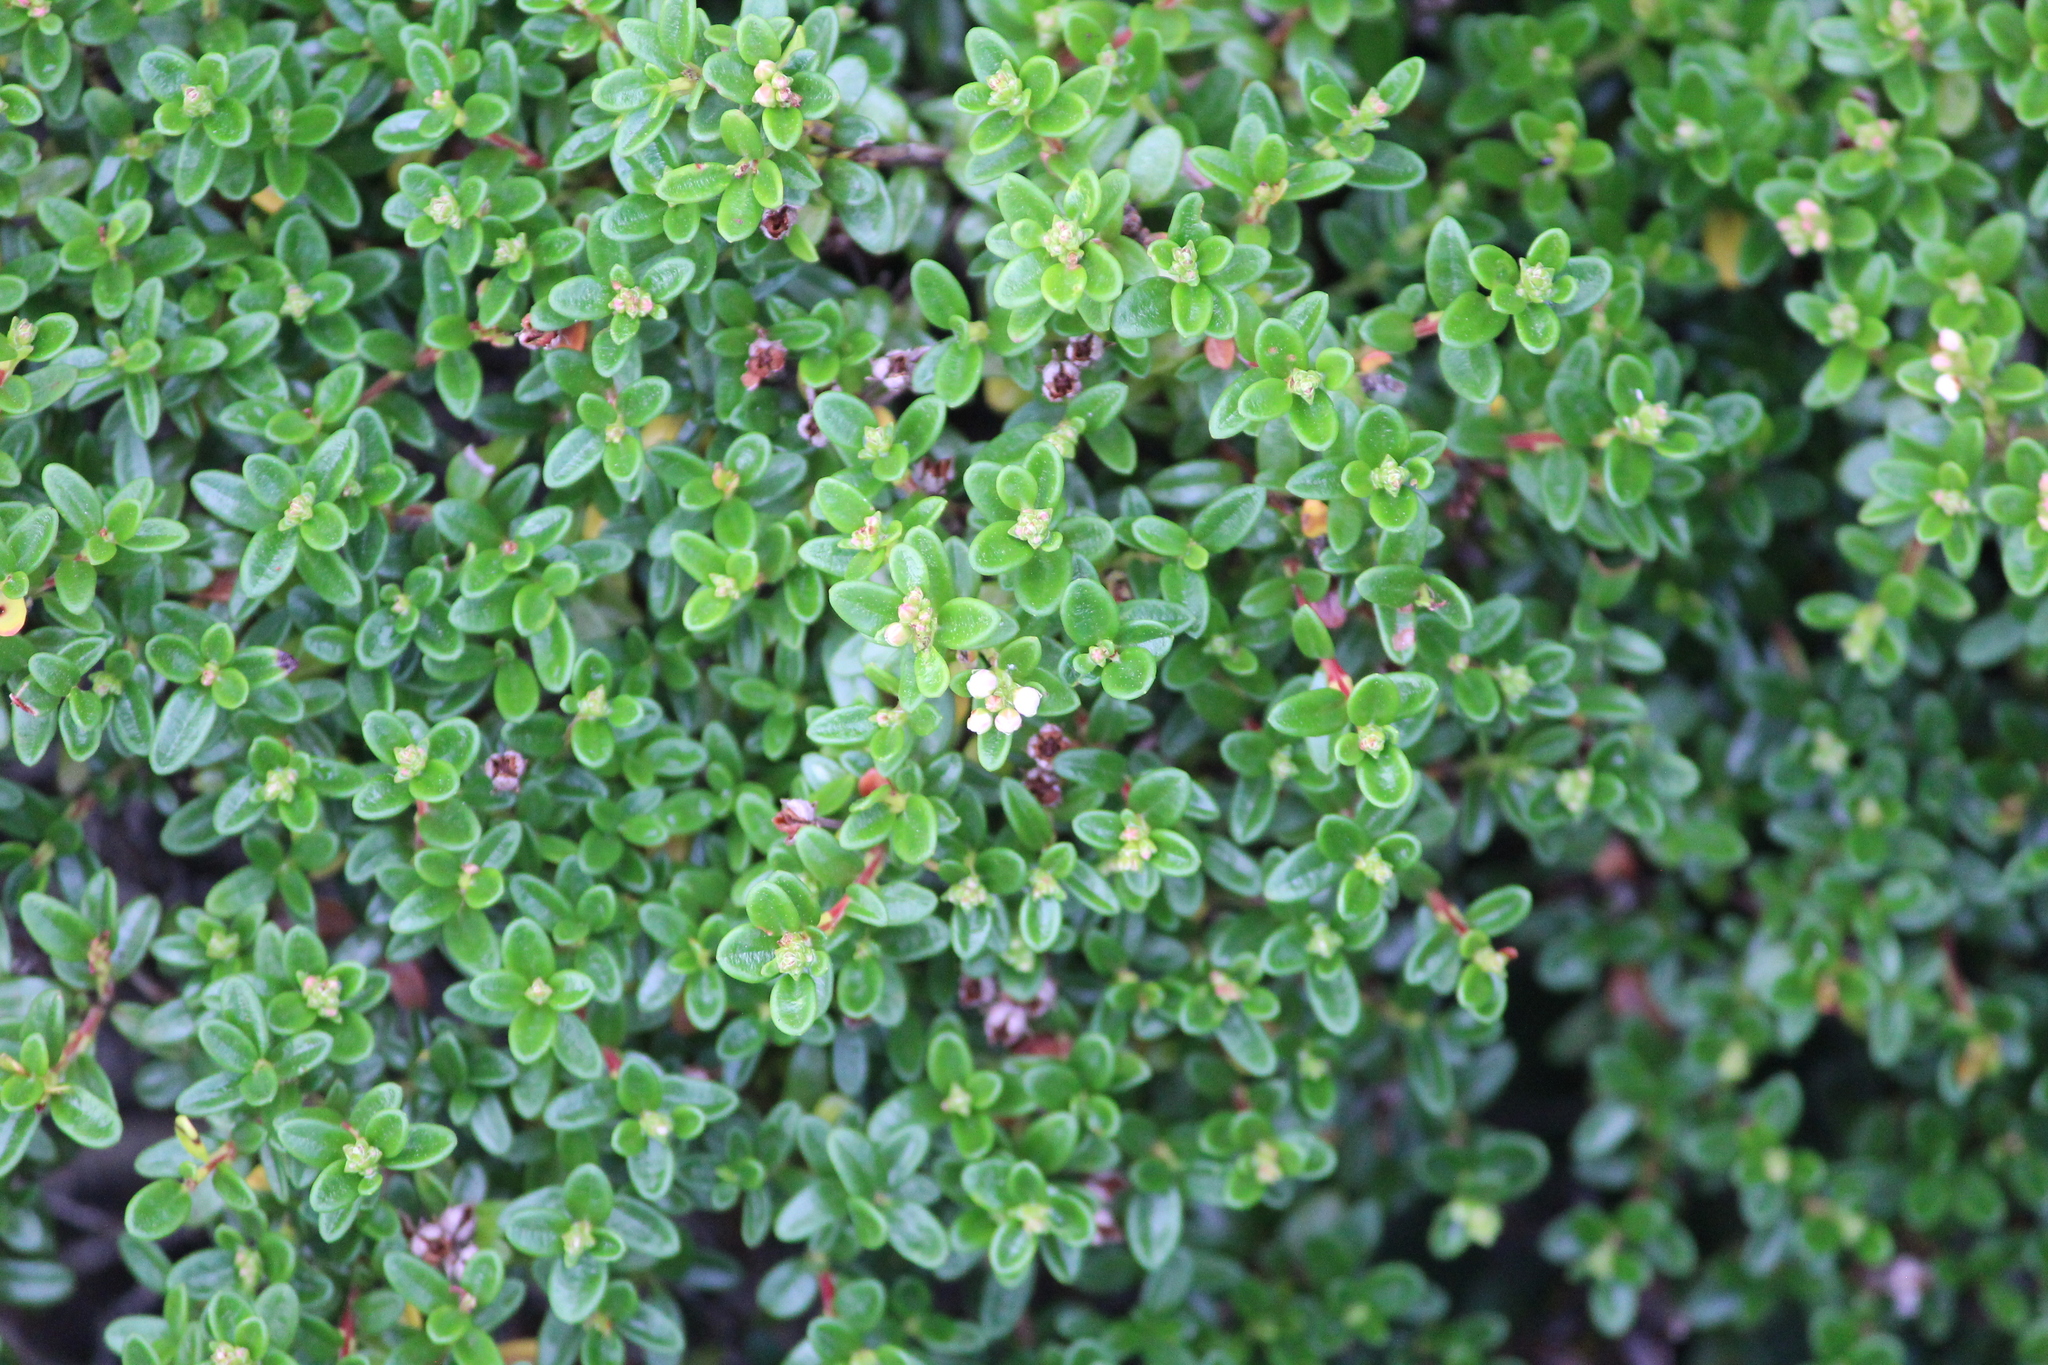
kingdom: Plantae
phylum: Tracheophyta
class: Magnoliopsida
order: Ericales
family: Ericaceae
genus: Kalmia
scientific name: Kalmia buxifolia
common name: Sandmyrtle
